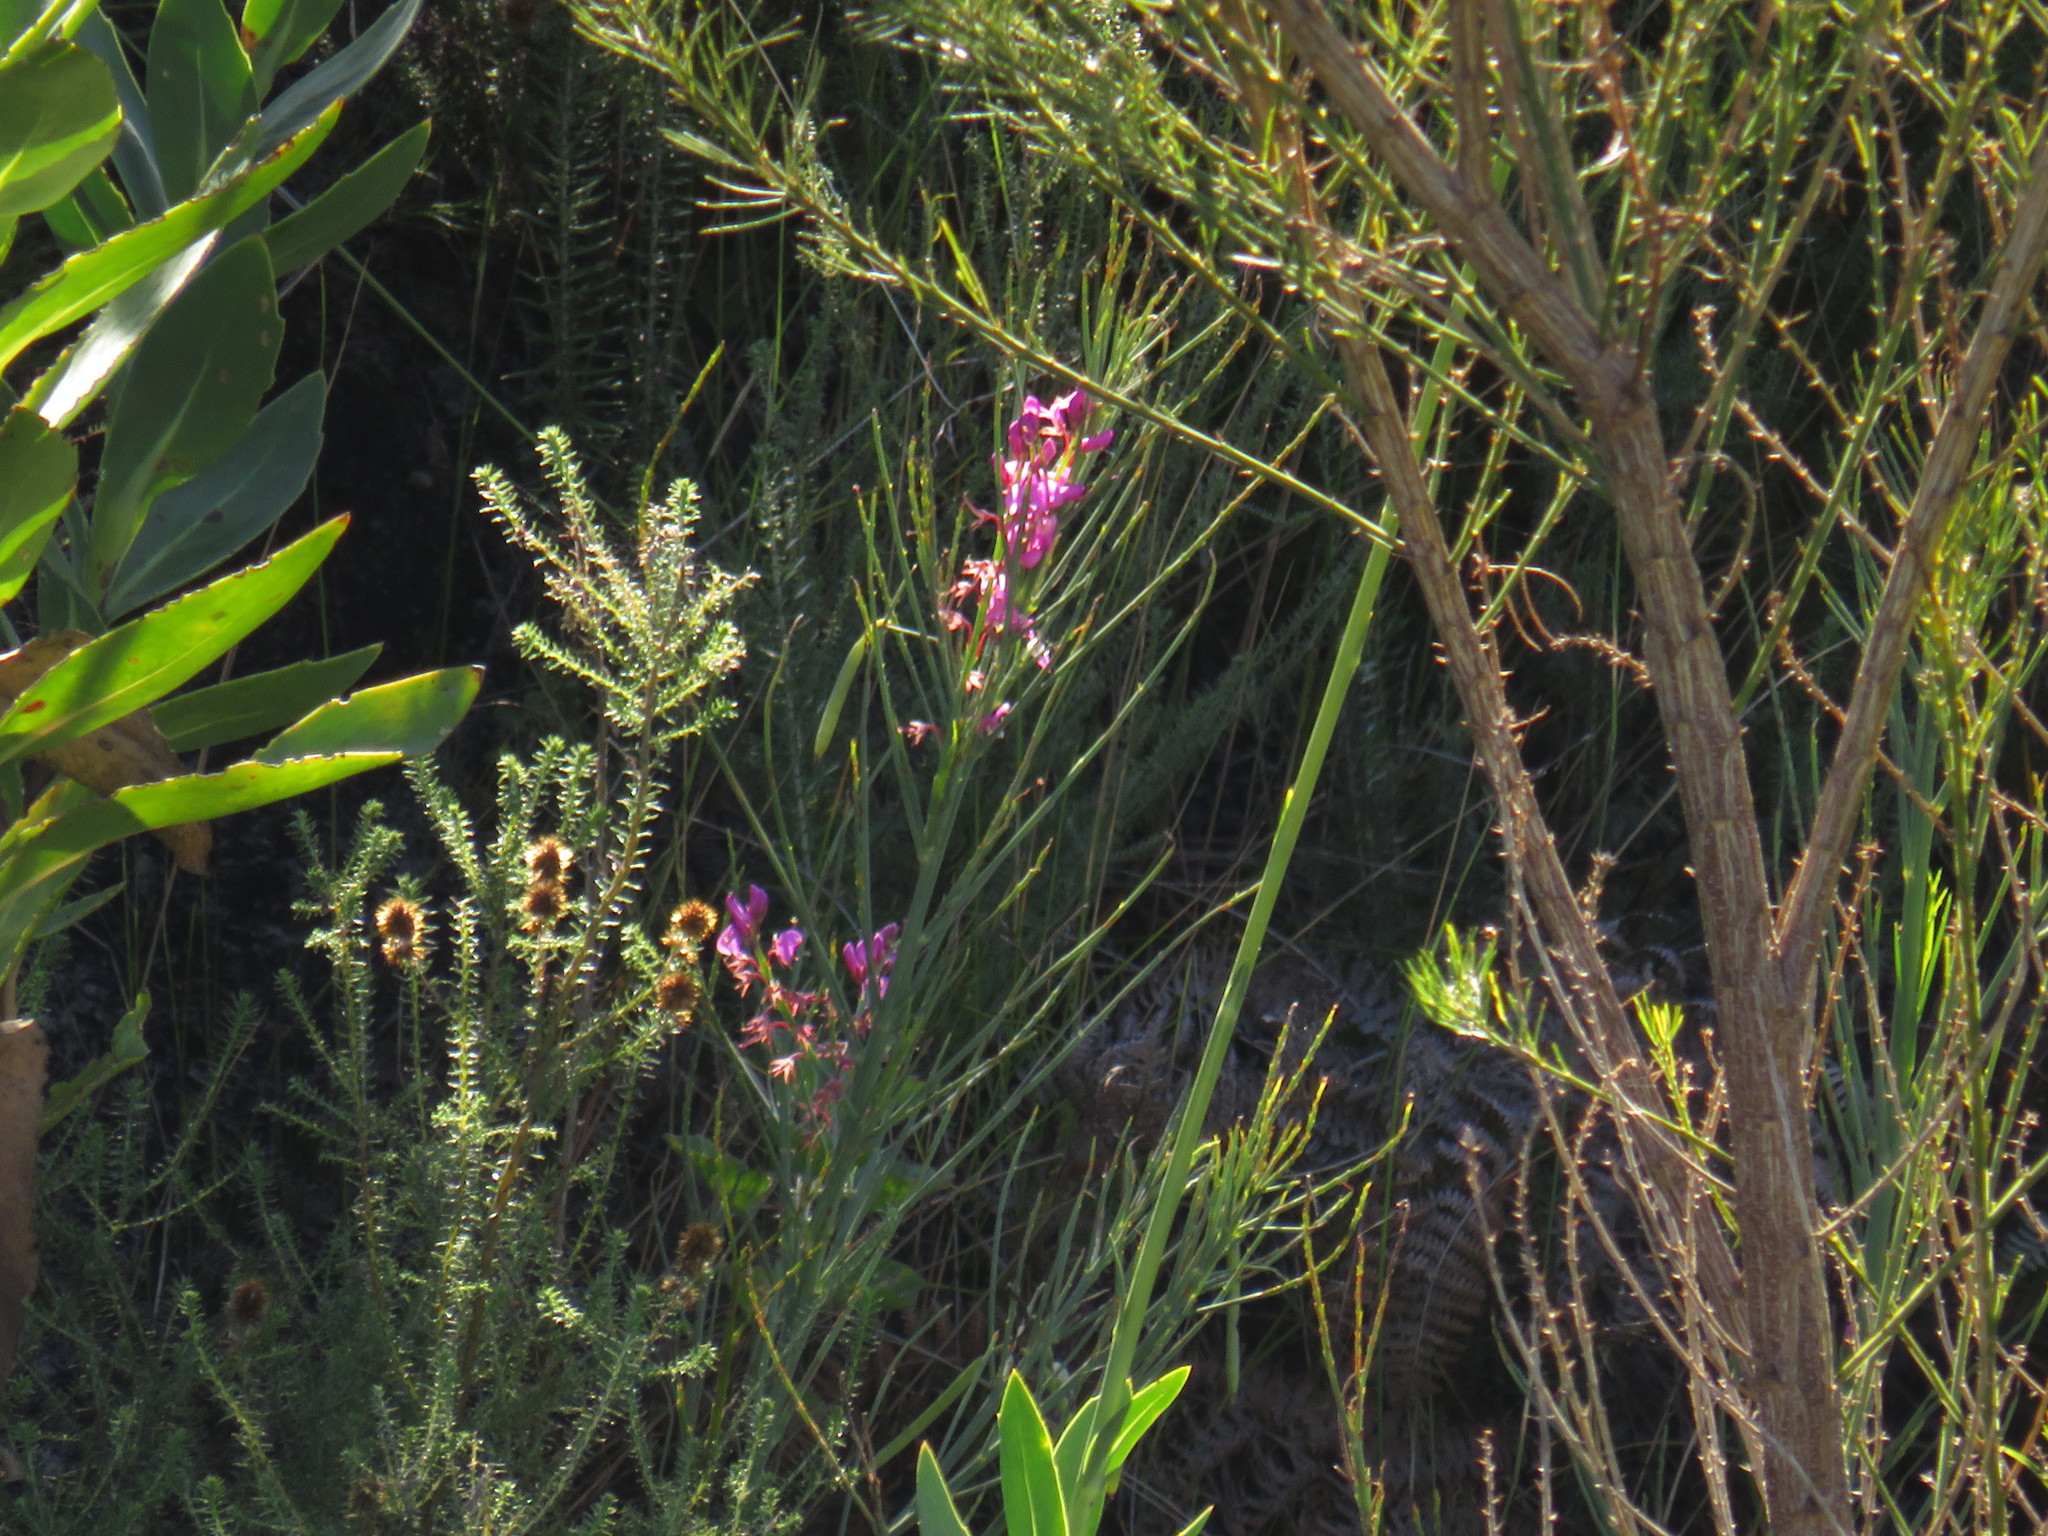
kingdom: Plantae
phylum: Tracheophyta
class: Magnoliopsida
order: Fabales
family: Fabaceae
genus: Indigofera
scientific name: Indigofera filifolia
